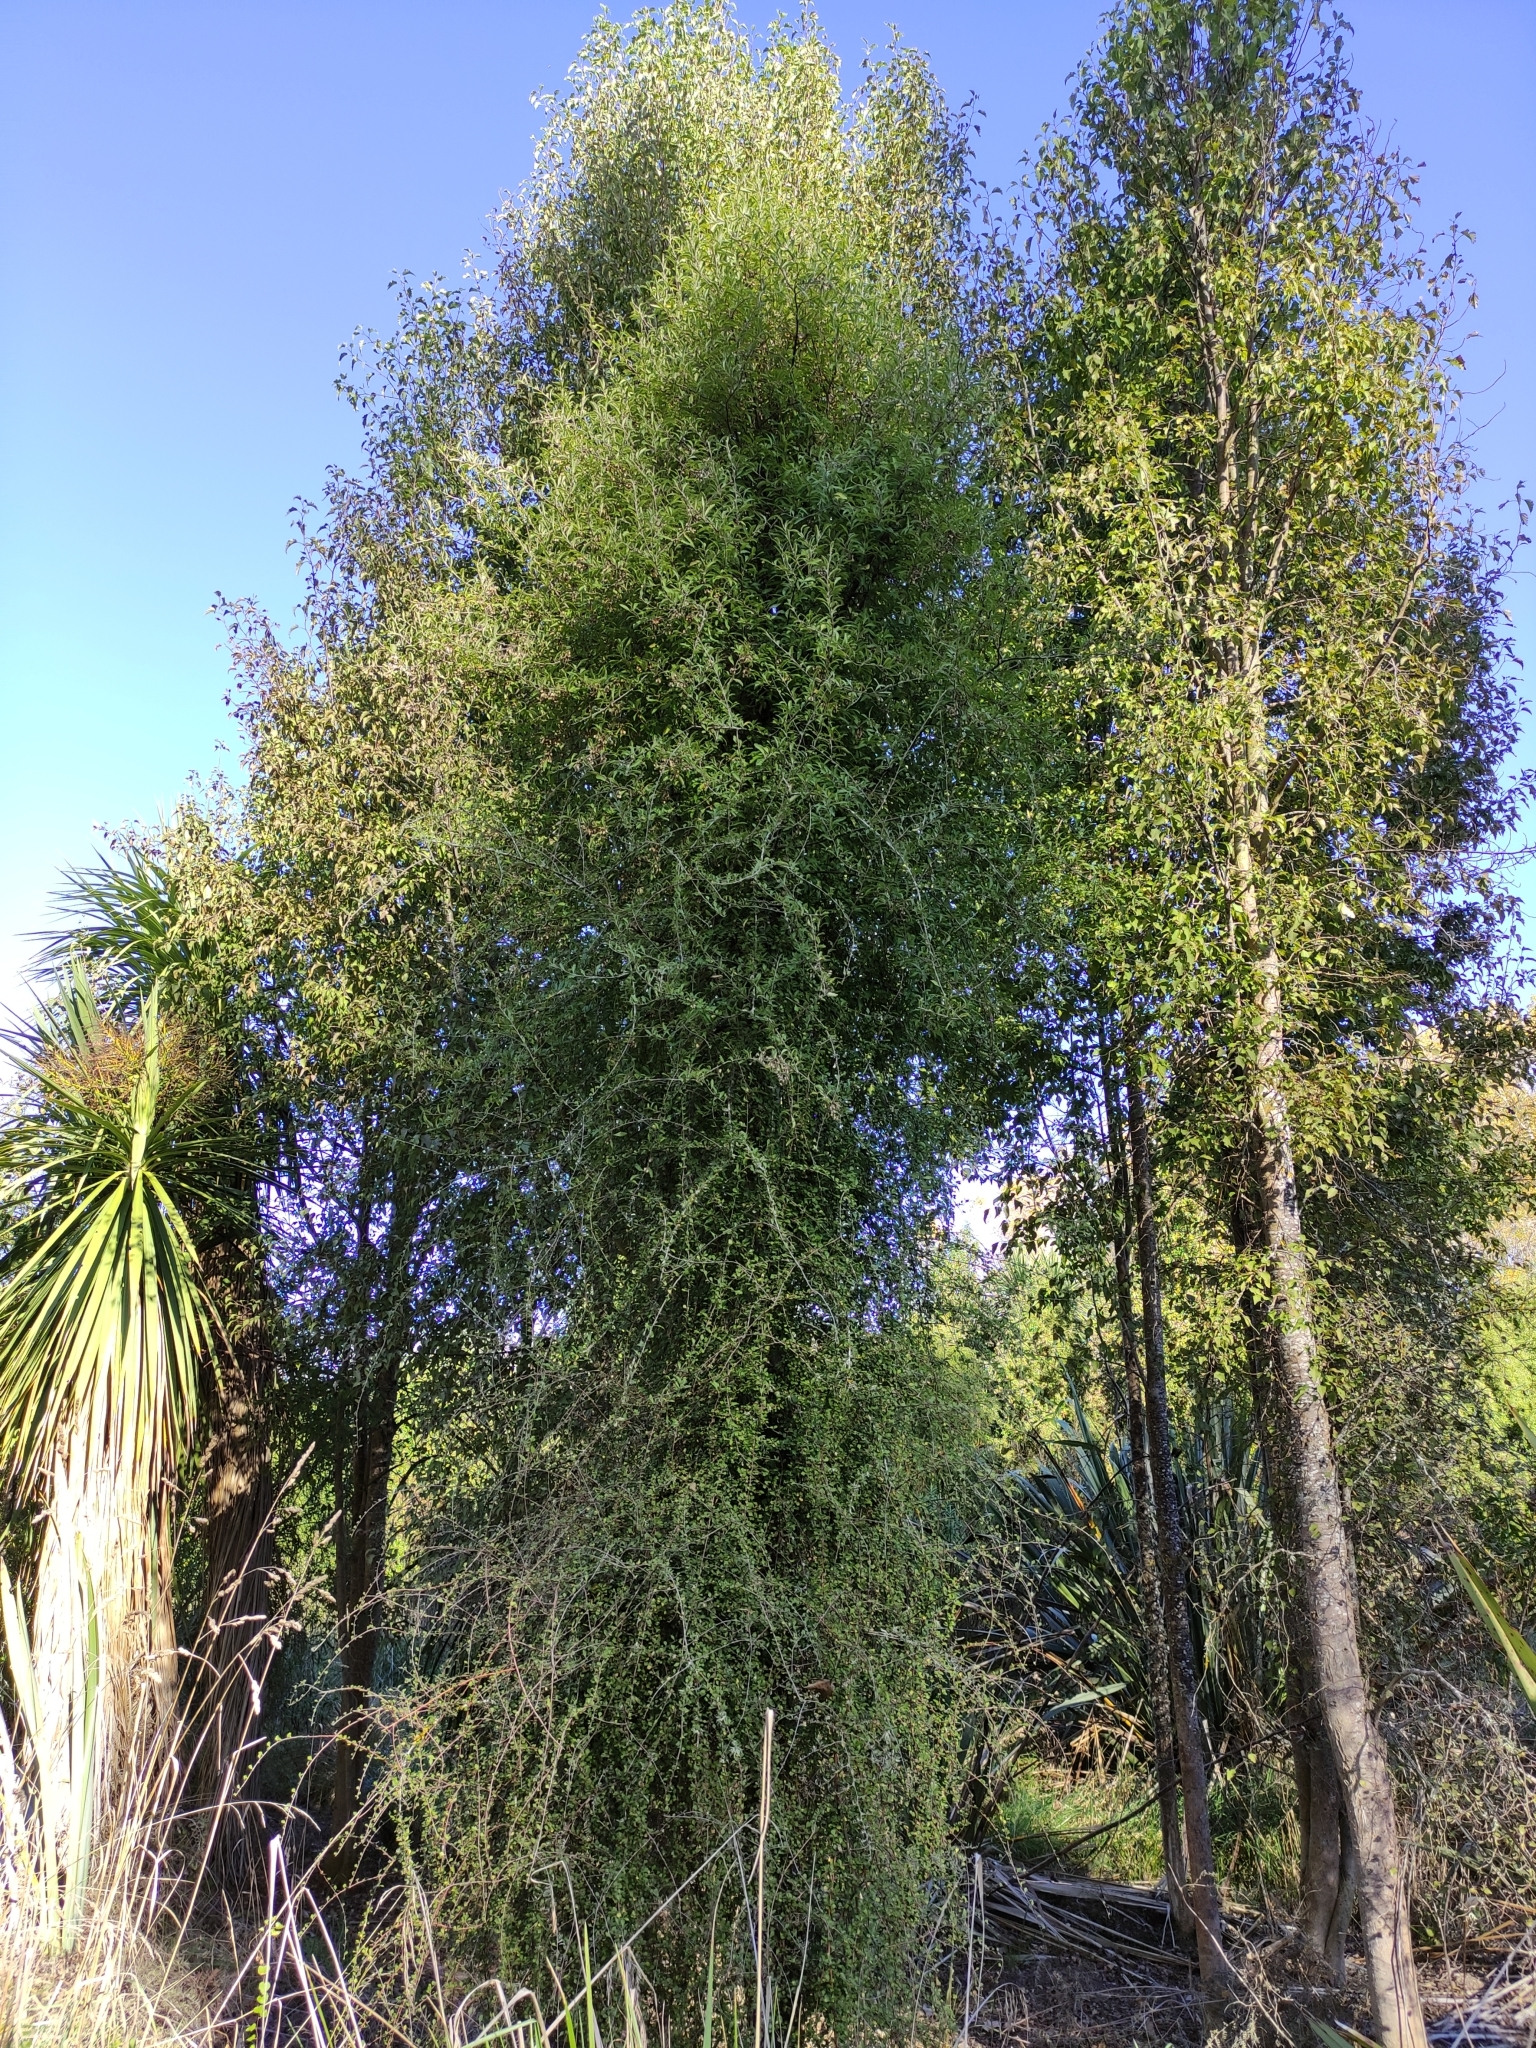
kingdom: Plantae
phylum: Tracheophyta
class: Magnoliopsida
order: Malvales
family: Malvaceae
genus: Hoheria
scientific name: Hoheria angustifolia
